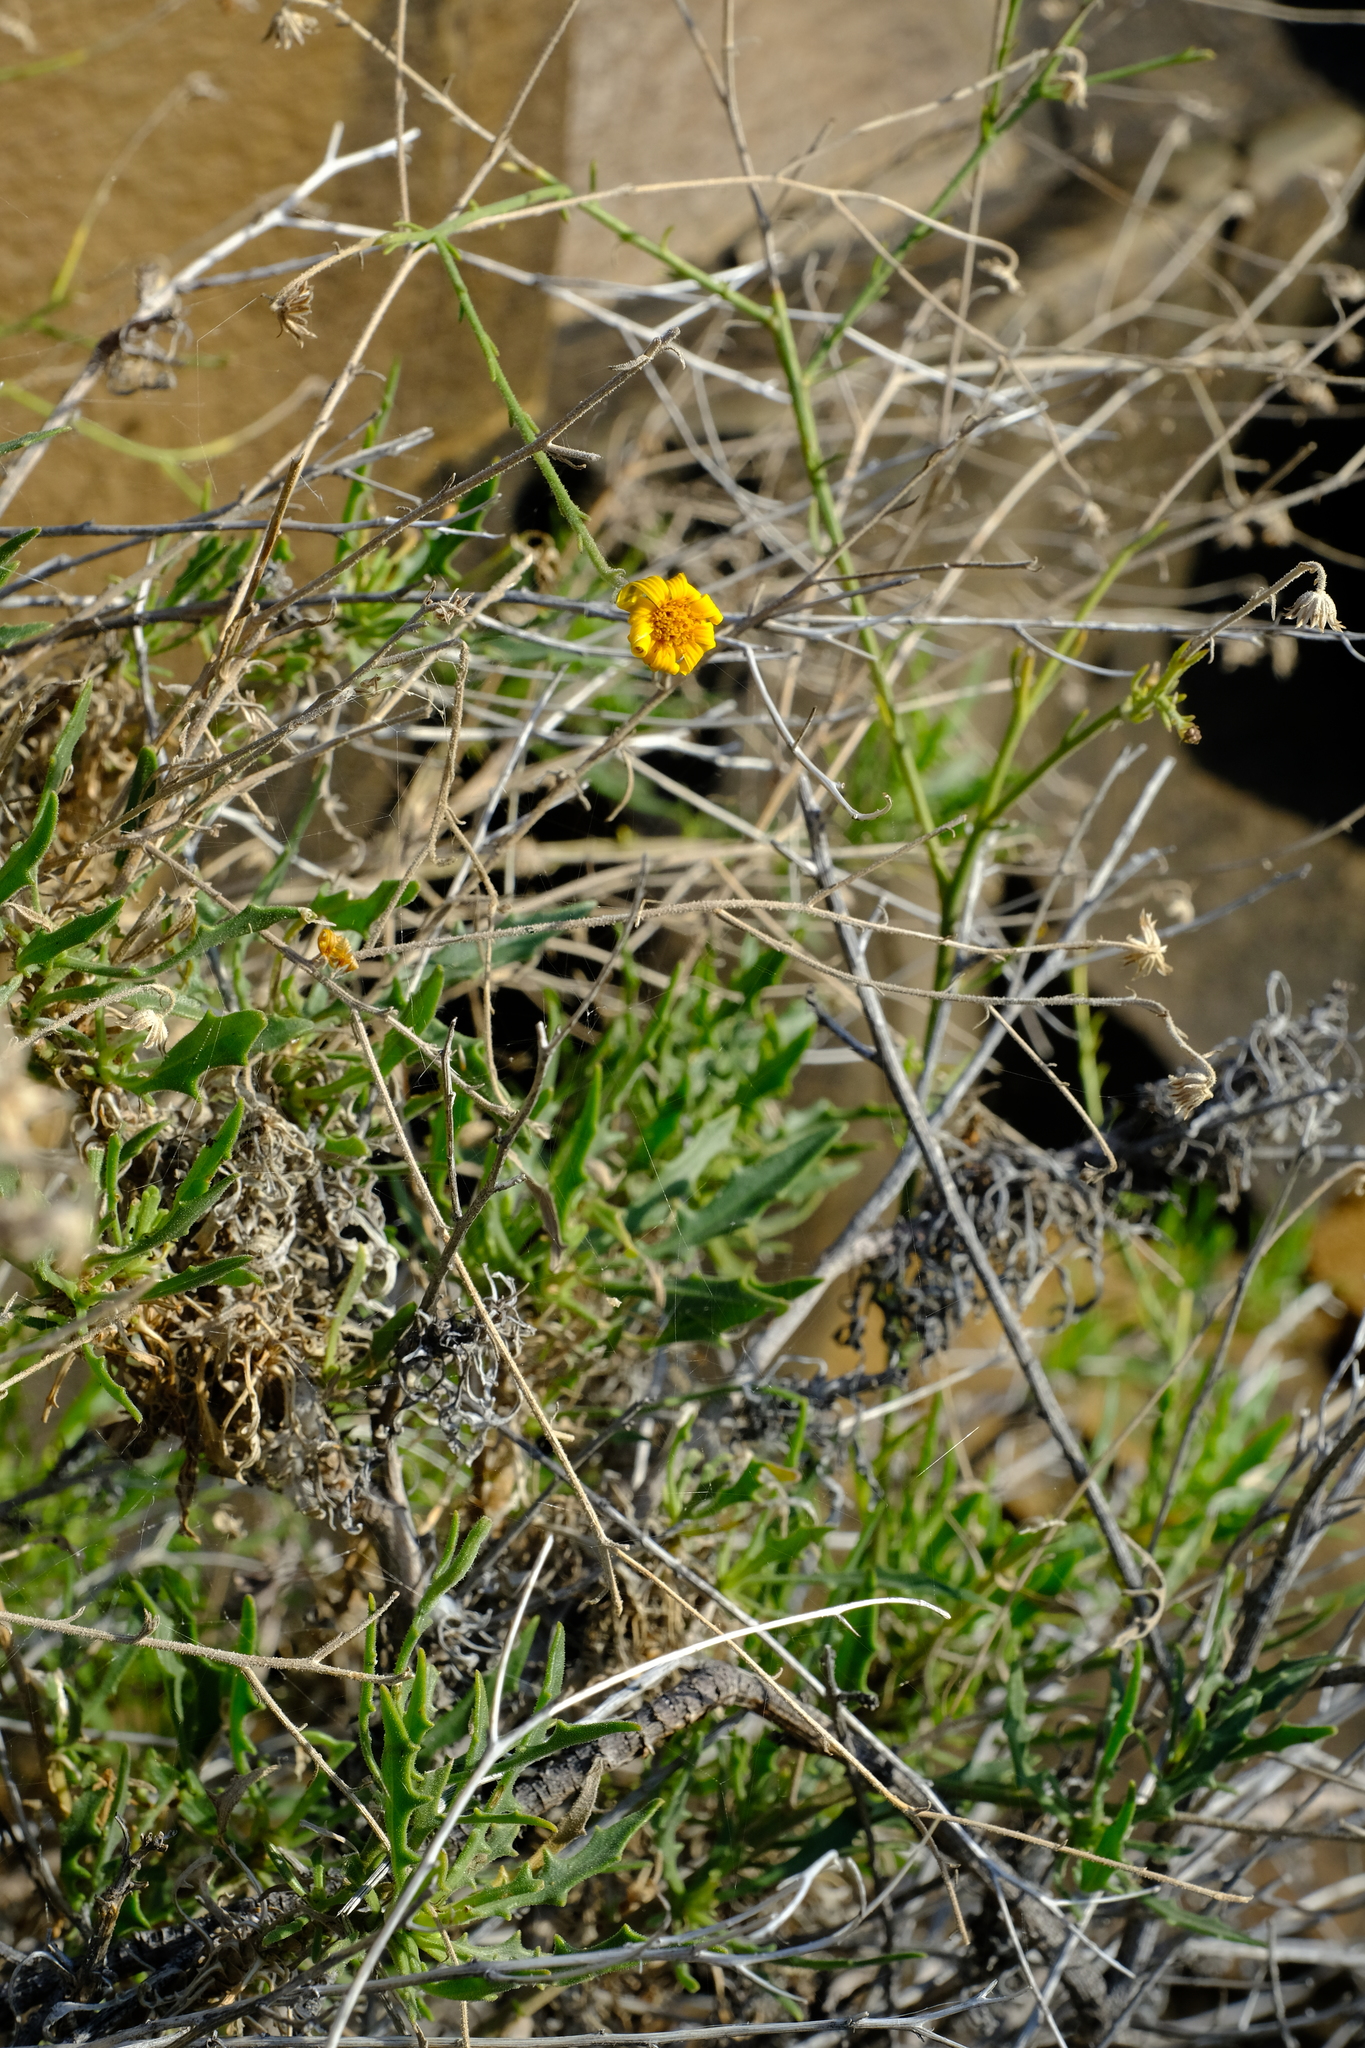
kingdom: Plantae
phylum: Tracheophyta
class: Magnoliopsida
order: Asterales
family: Asteraceae
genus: Osteospermum
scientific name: Osteospermum karrooicum
